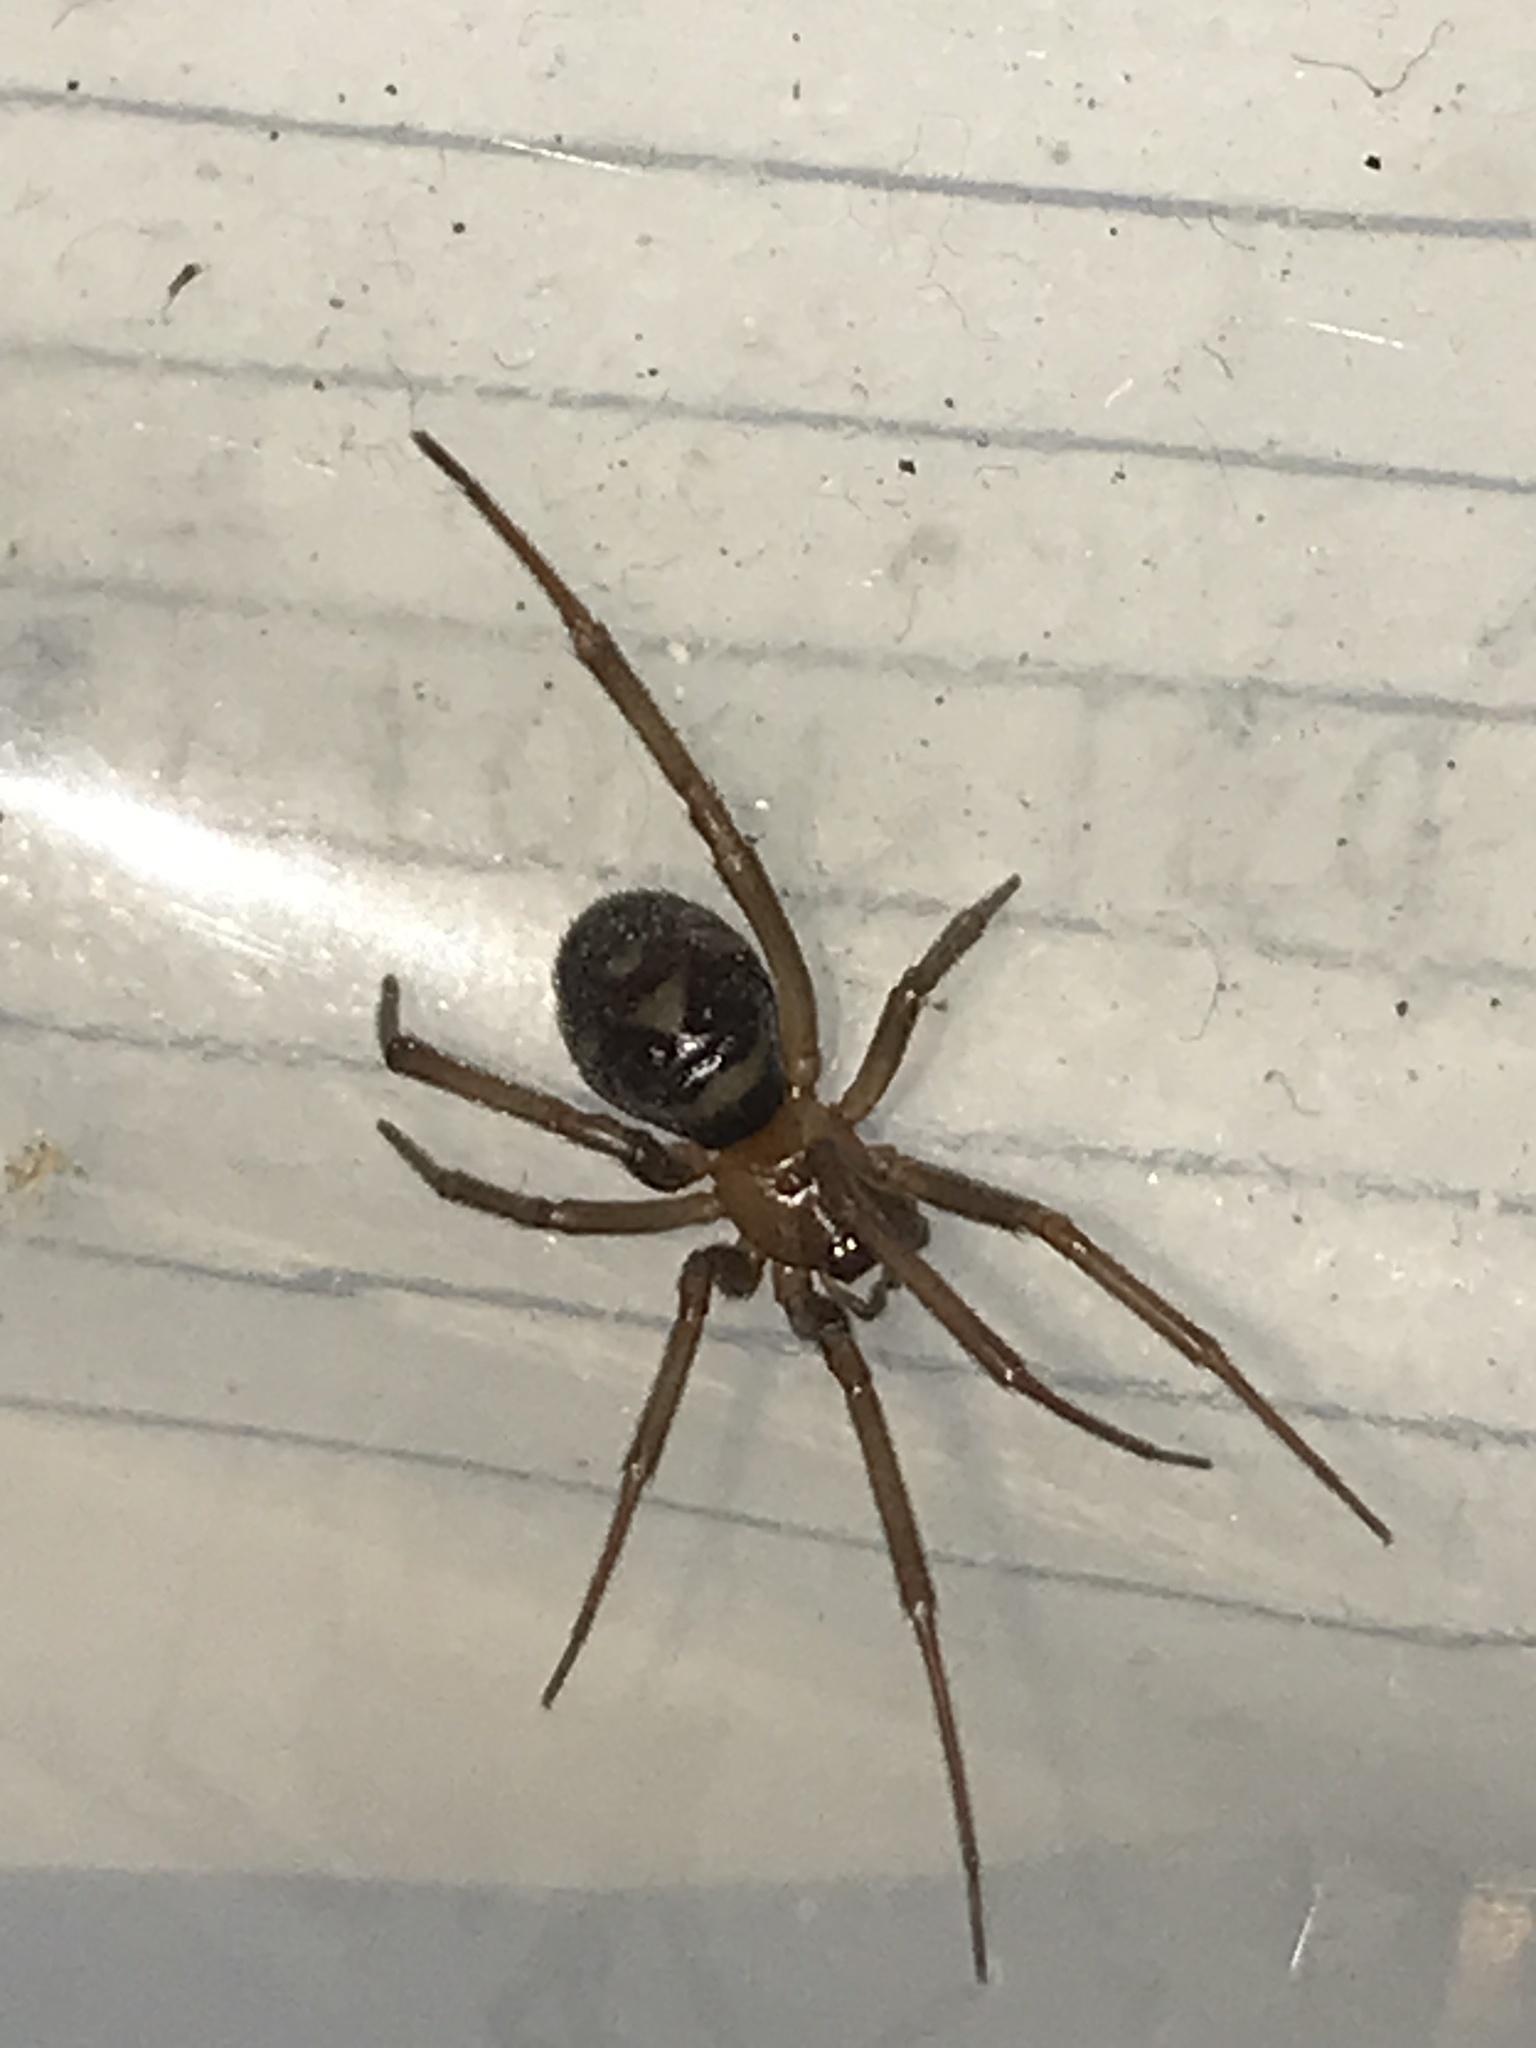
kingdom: Animalia
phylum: Arthropoda
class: Arachnida
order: Araneae
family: Theridiidae
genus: Steatoda
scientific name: Steatoda grossa
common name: False black widow
